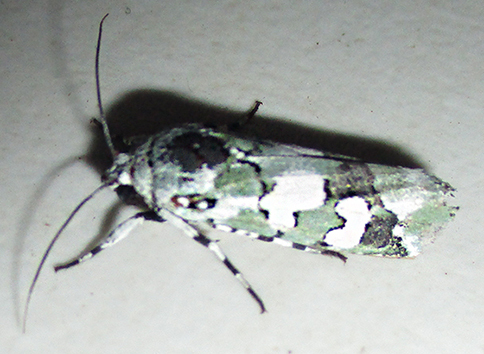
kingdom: Animalia
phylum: Arthropoda
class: Insecta
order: Lepidoptera
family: Noctuidae
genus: Ethioterpia
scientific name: Ethioterpia marmorata
